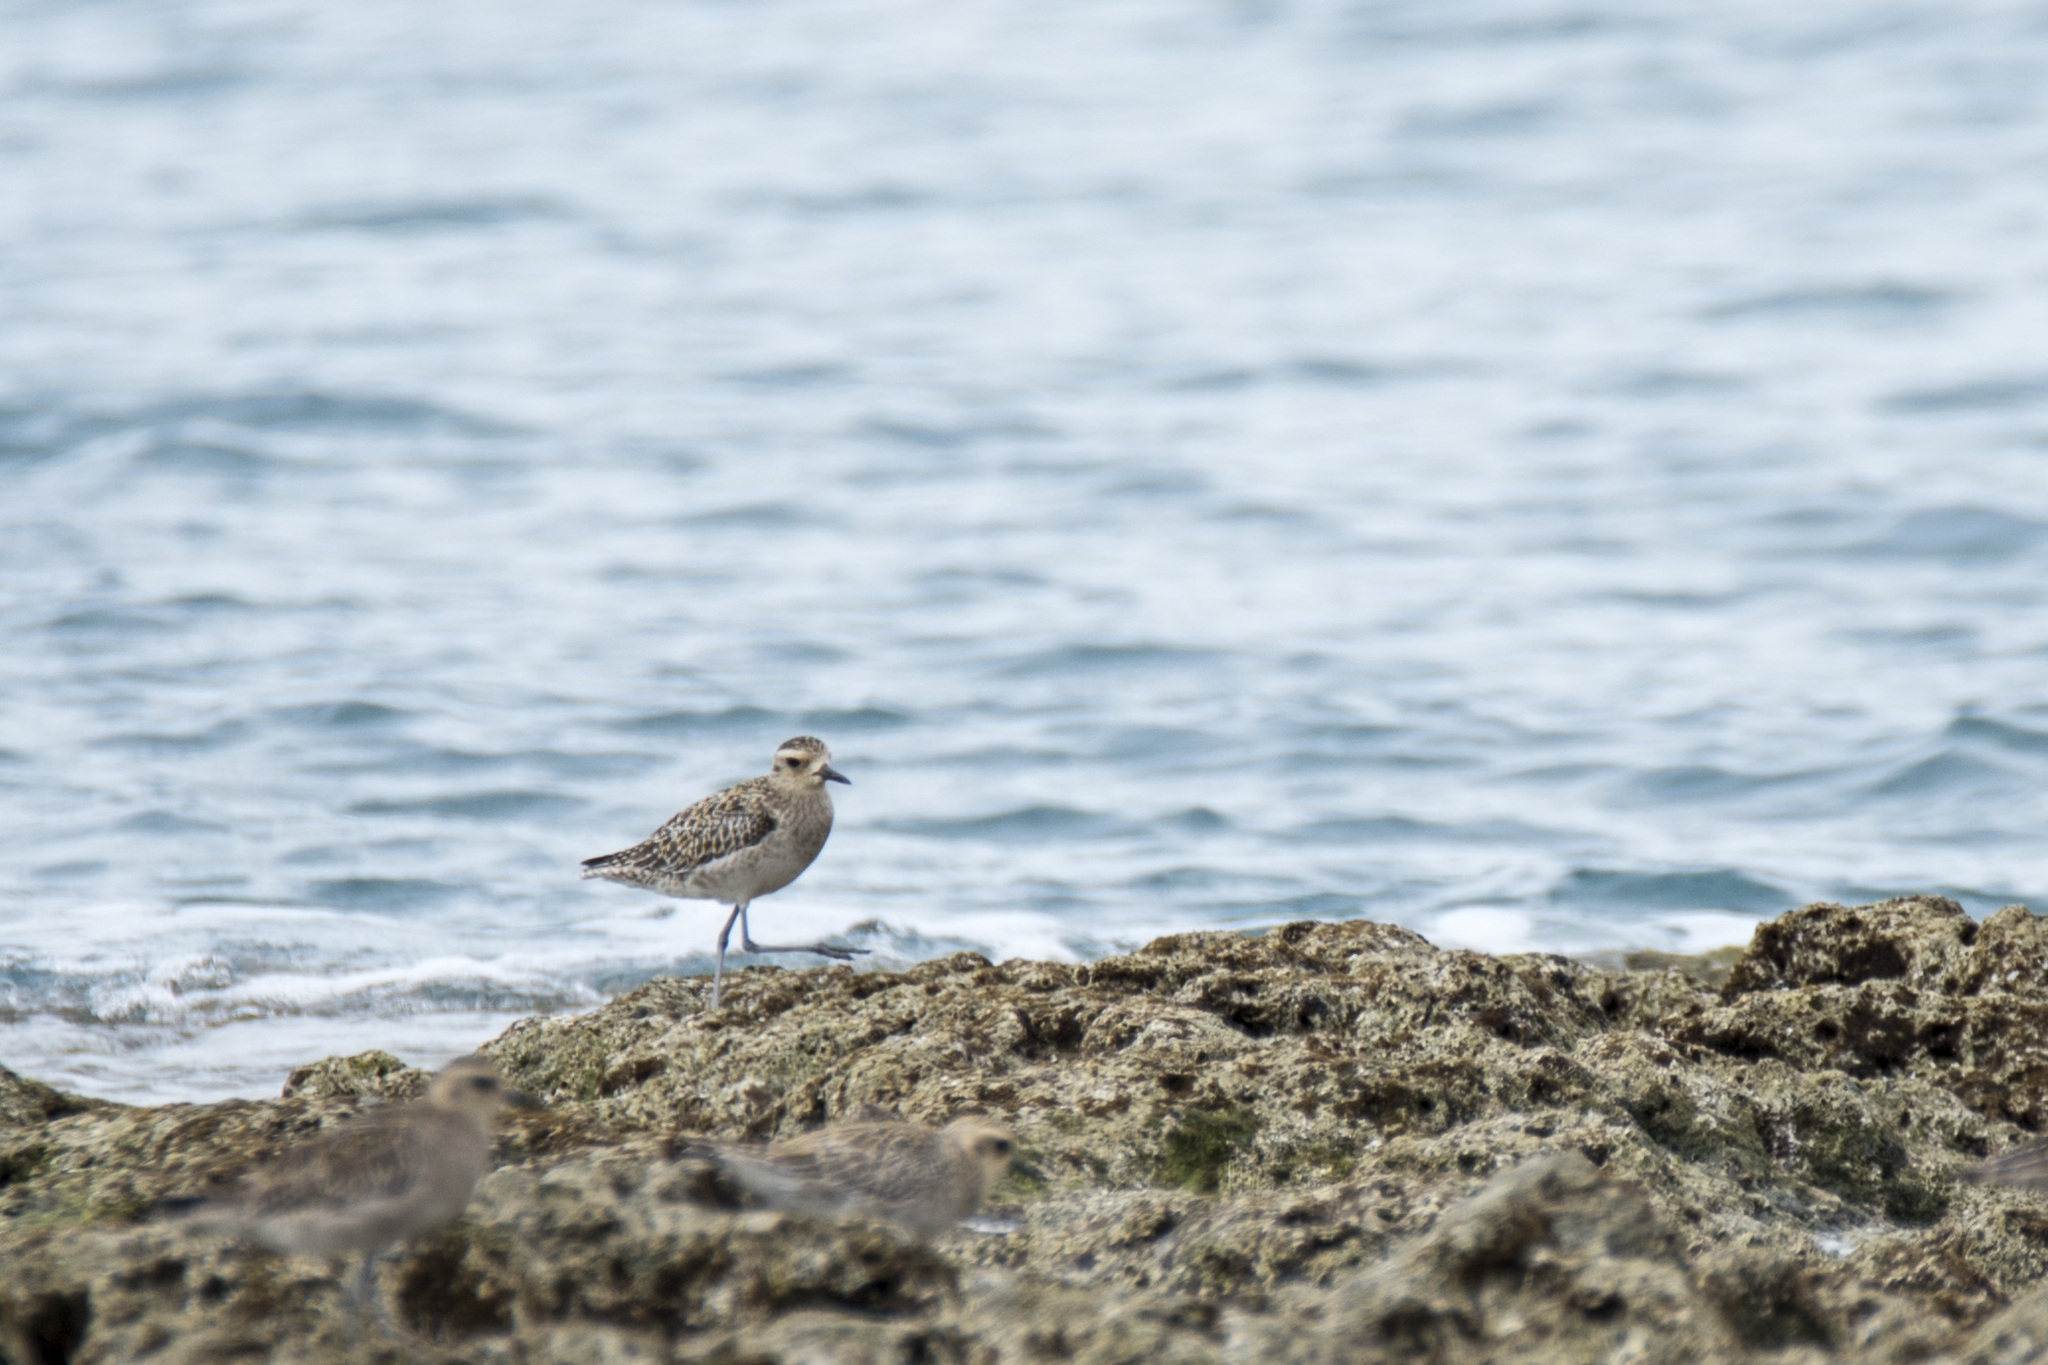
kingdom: Animalia
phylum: Chordata
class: Aves
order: Charadriiformes
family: Charadriidae
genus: Pluvialis
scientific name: Pluvialis fulva
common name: Pacific golden plover
